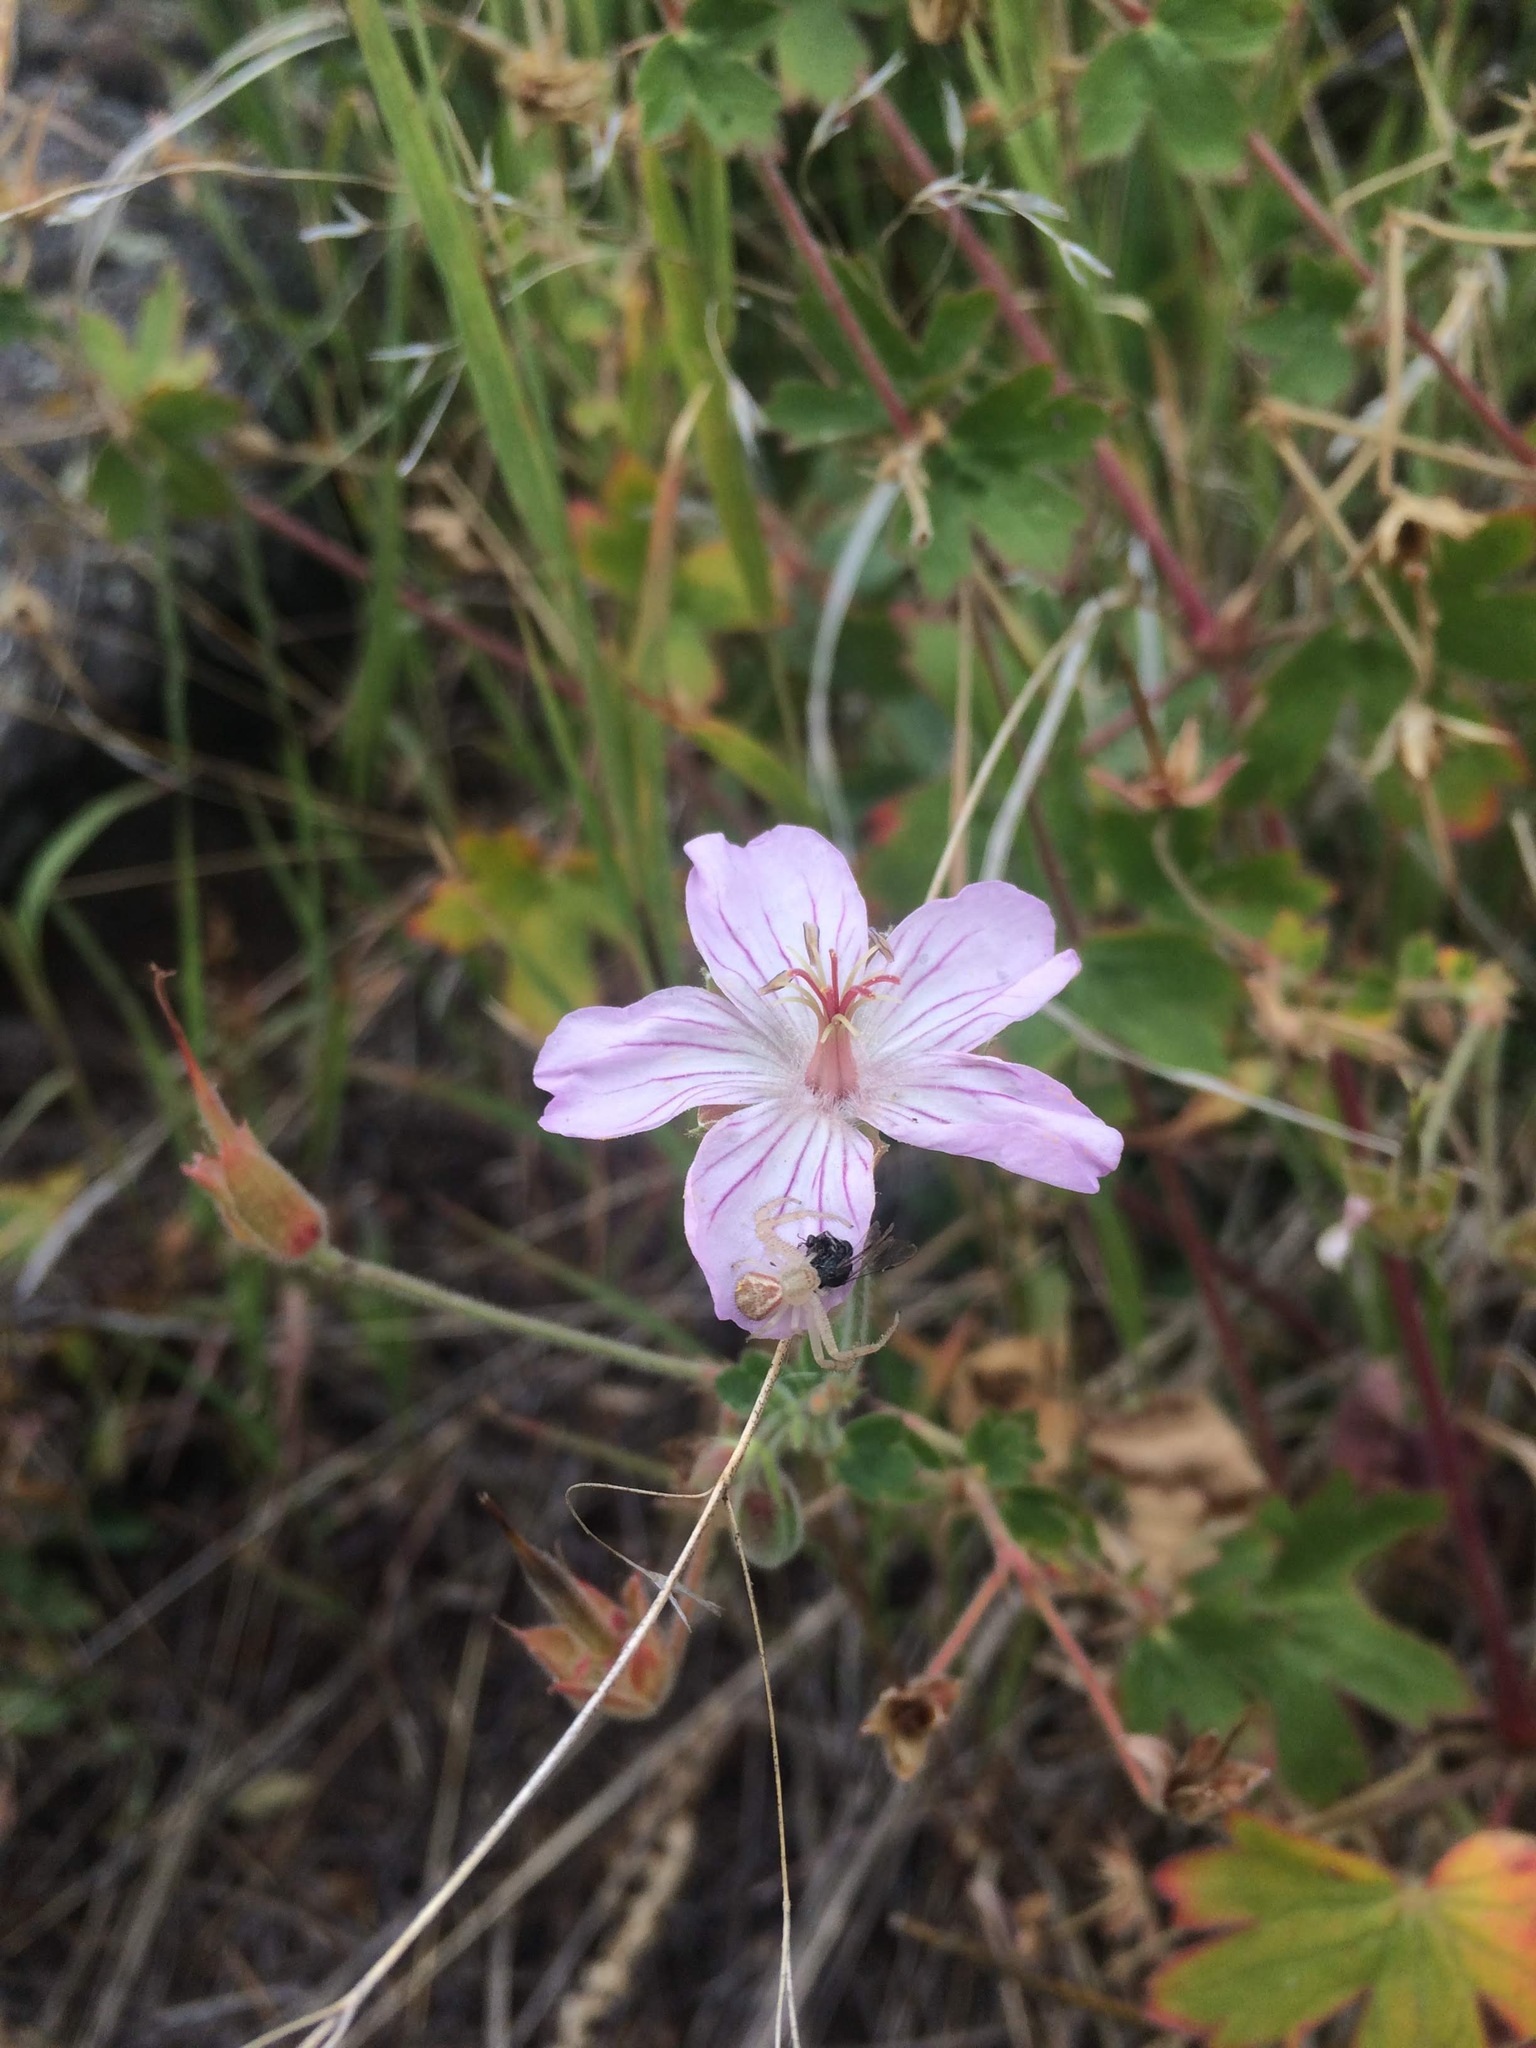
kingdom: Plantae
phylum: Tracheophyta
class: Magnoliopsida
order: Geraniales
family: Geraniaceae
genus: Geranium
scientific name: Geranium caespitosum
